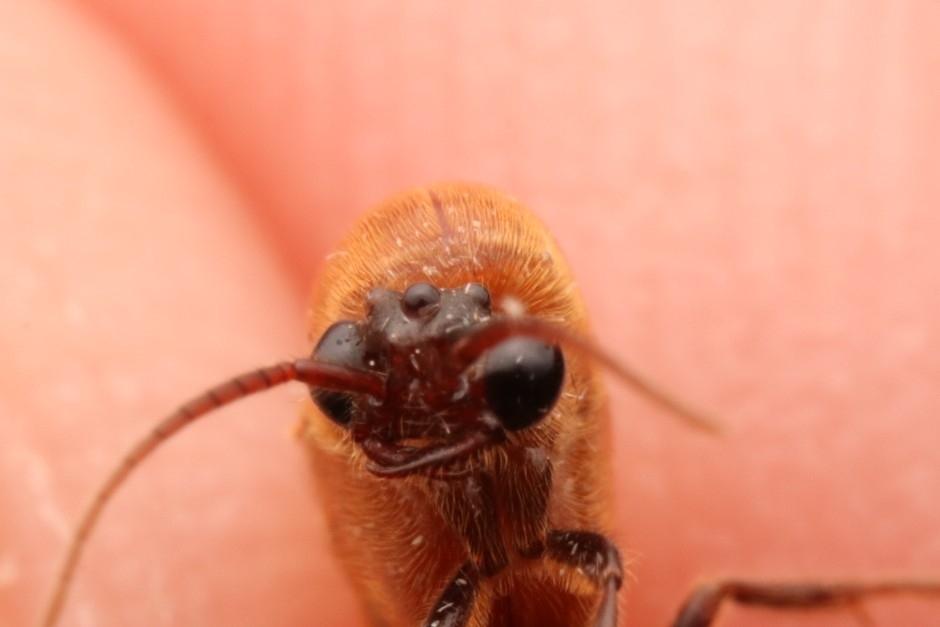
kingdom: Animalia
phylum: Arthropoda
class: Insecta
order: Hymenoptera
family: Formicidae
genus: Neivamyrmex
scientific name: Neivamyrmex pilosus
